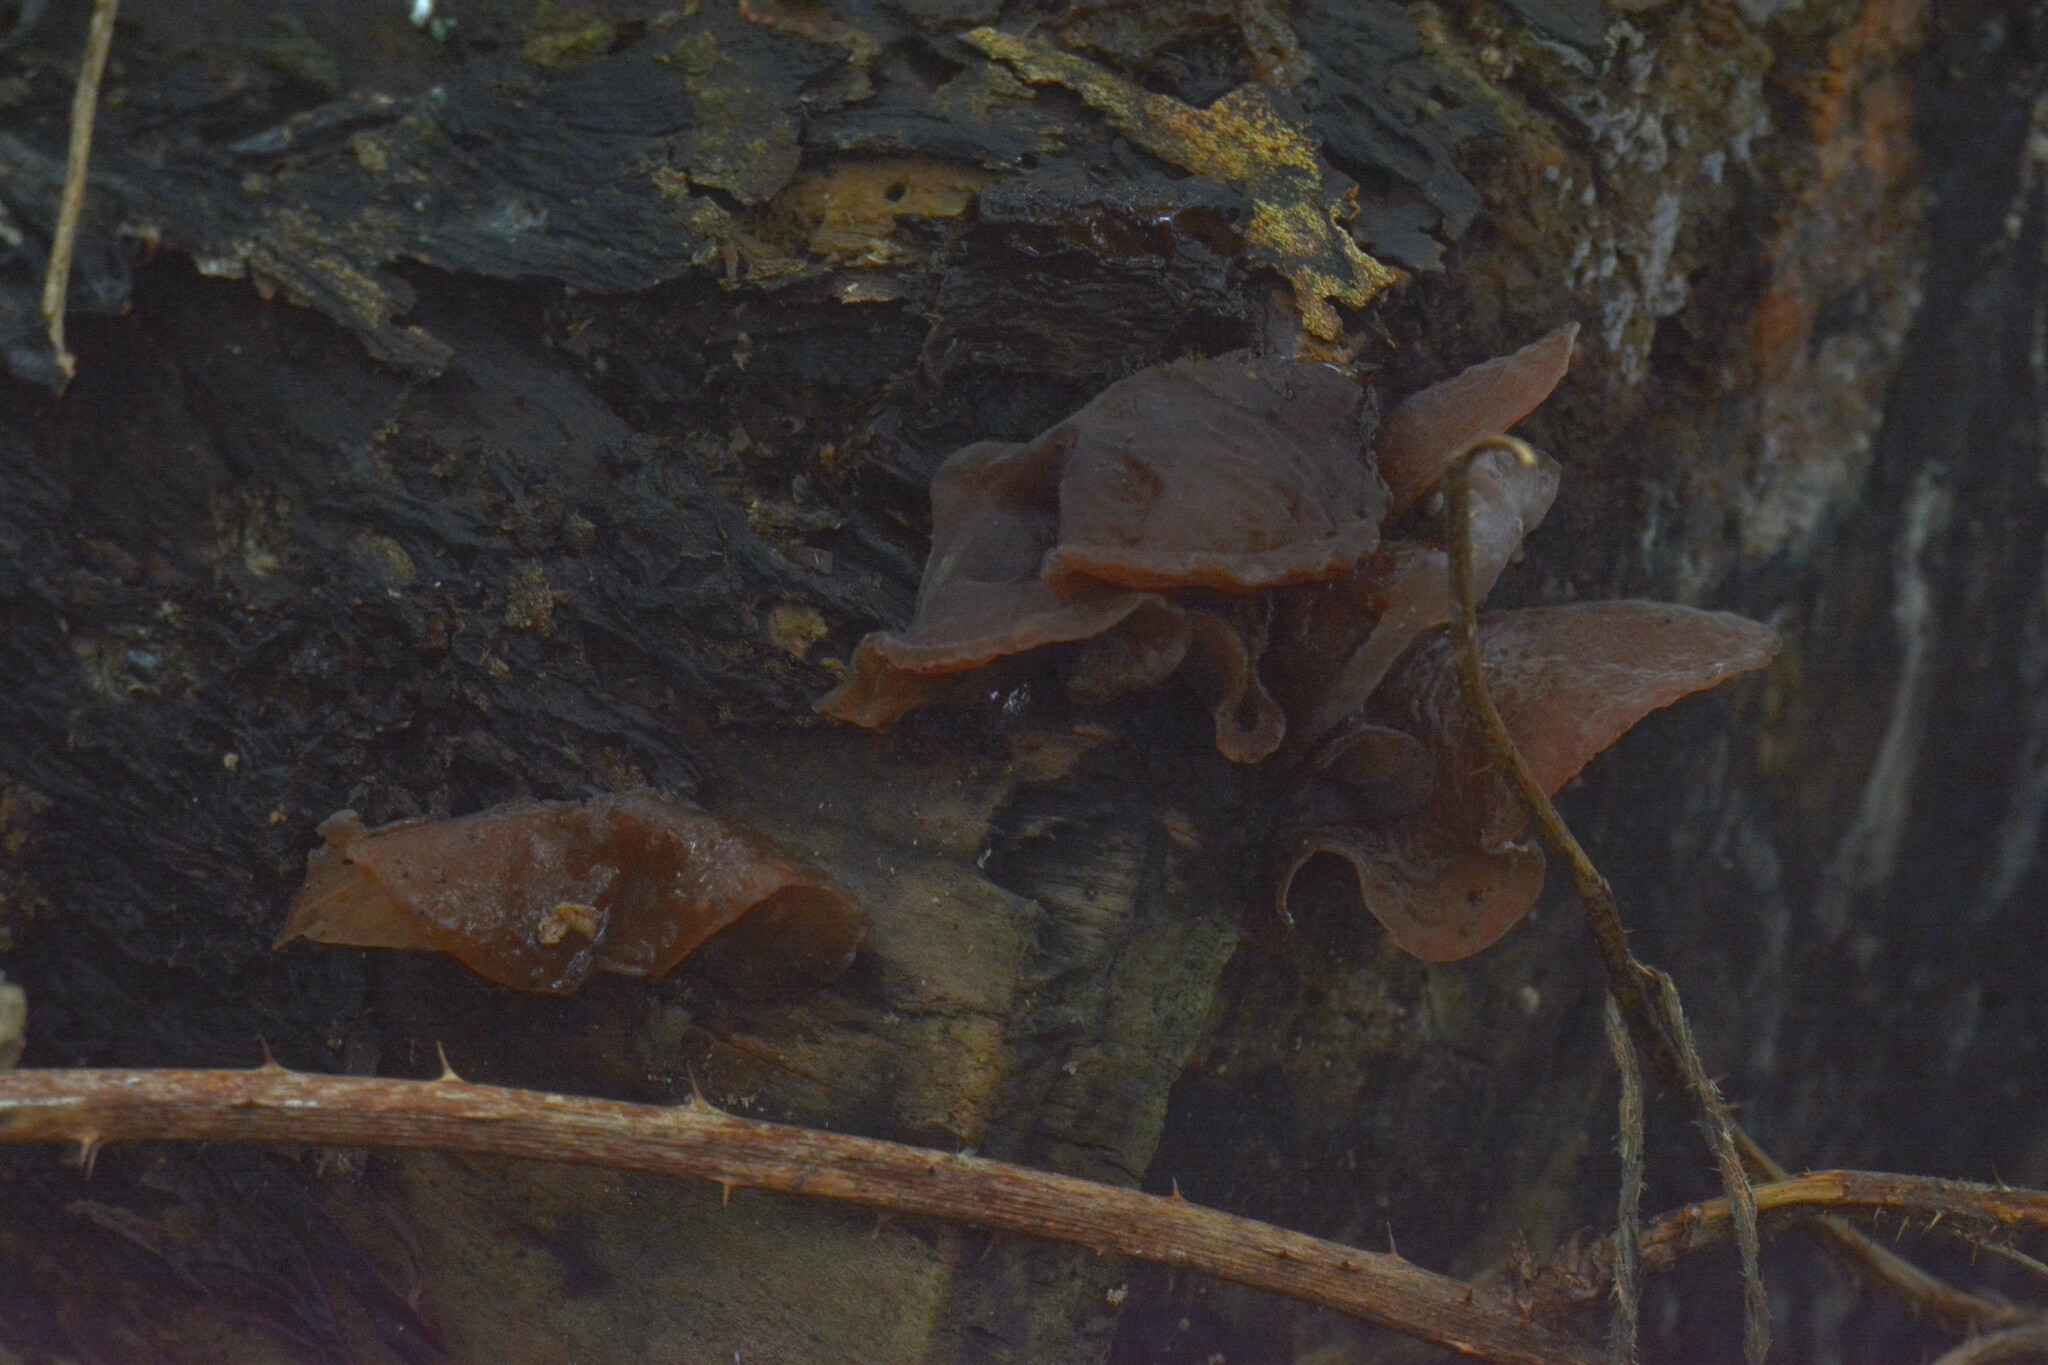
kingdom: Fungi
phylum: Basidiomycota
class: Agaricomycetes
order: Auriculariales
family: Auriculariaceae
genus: Auricularia
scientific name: Auricularia auricula-judae
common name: Jelly ear
